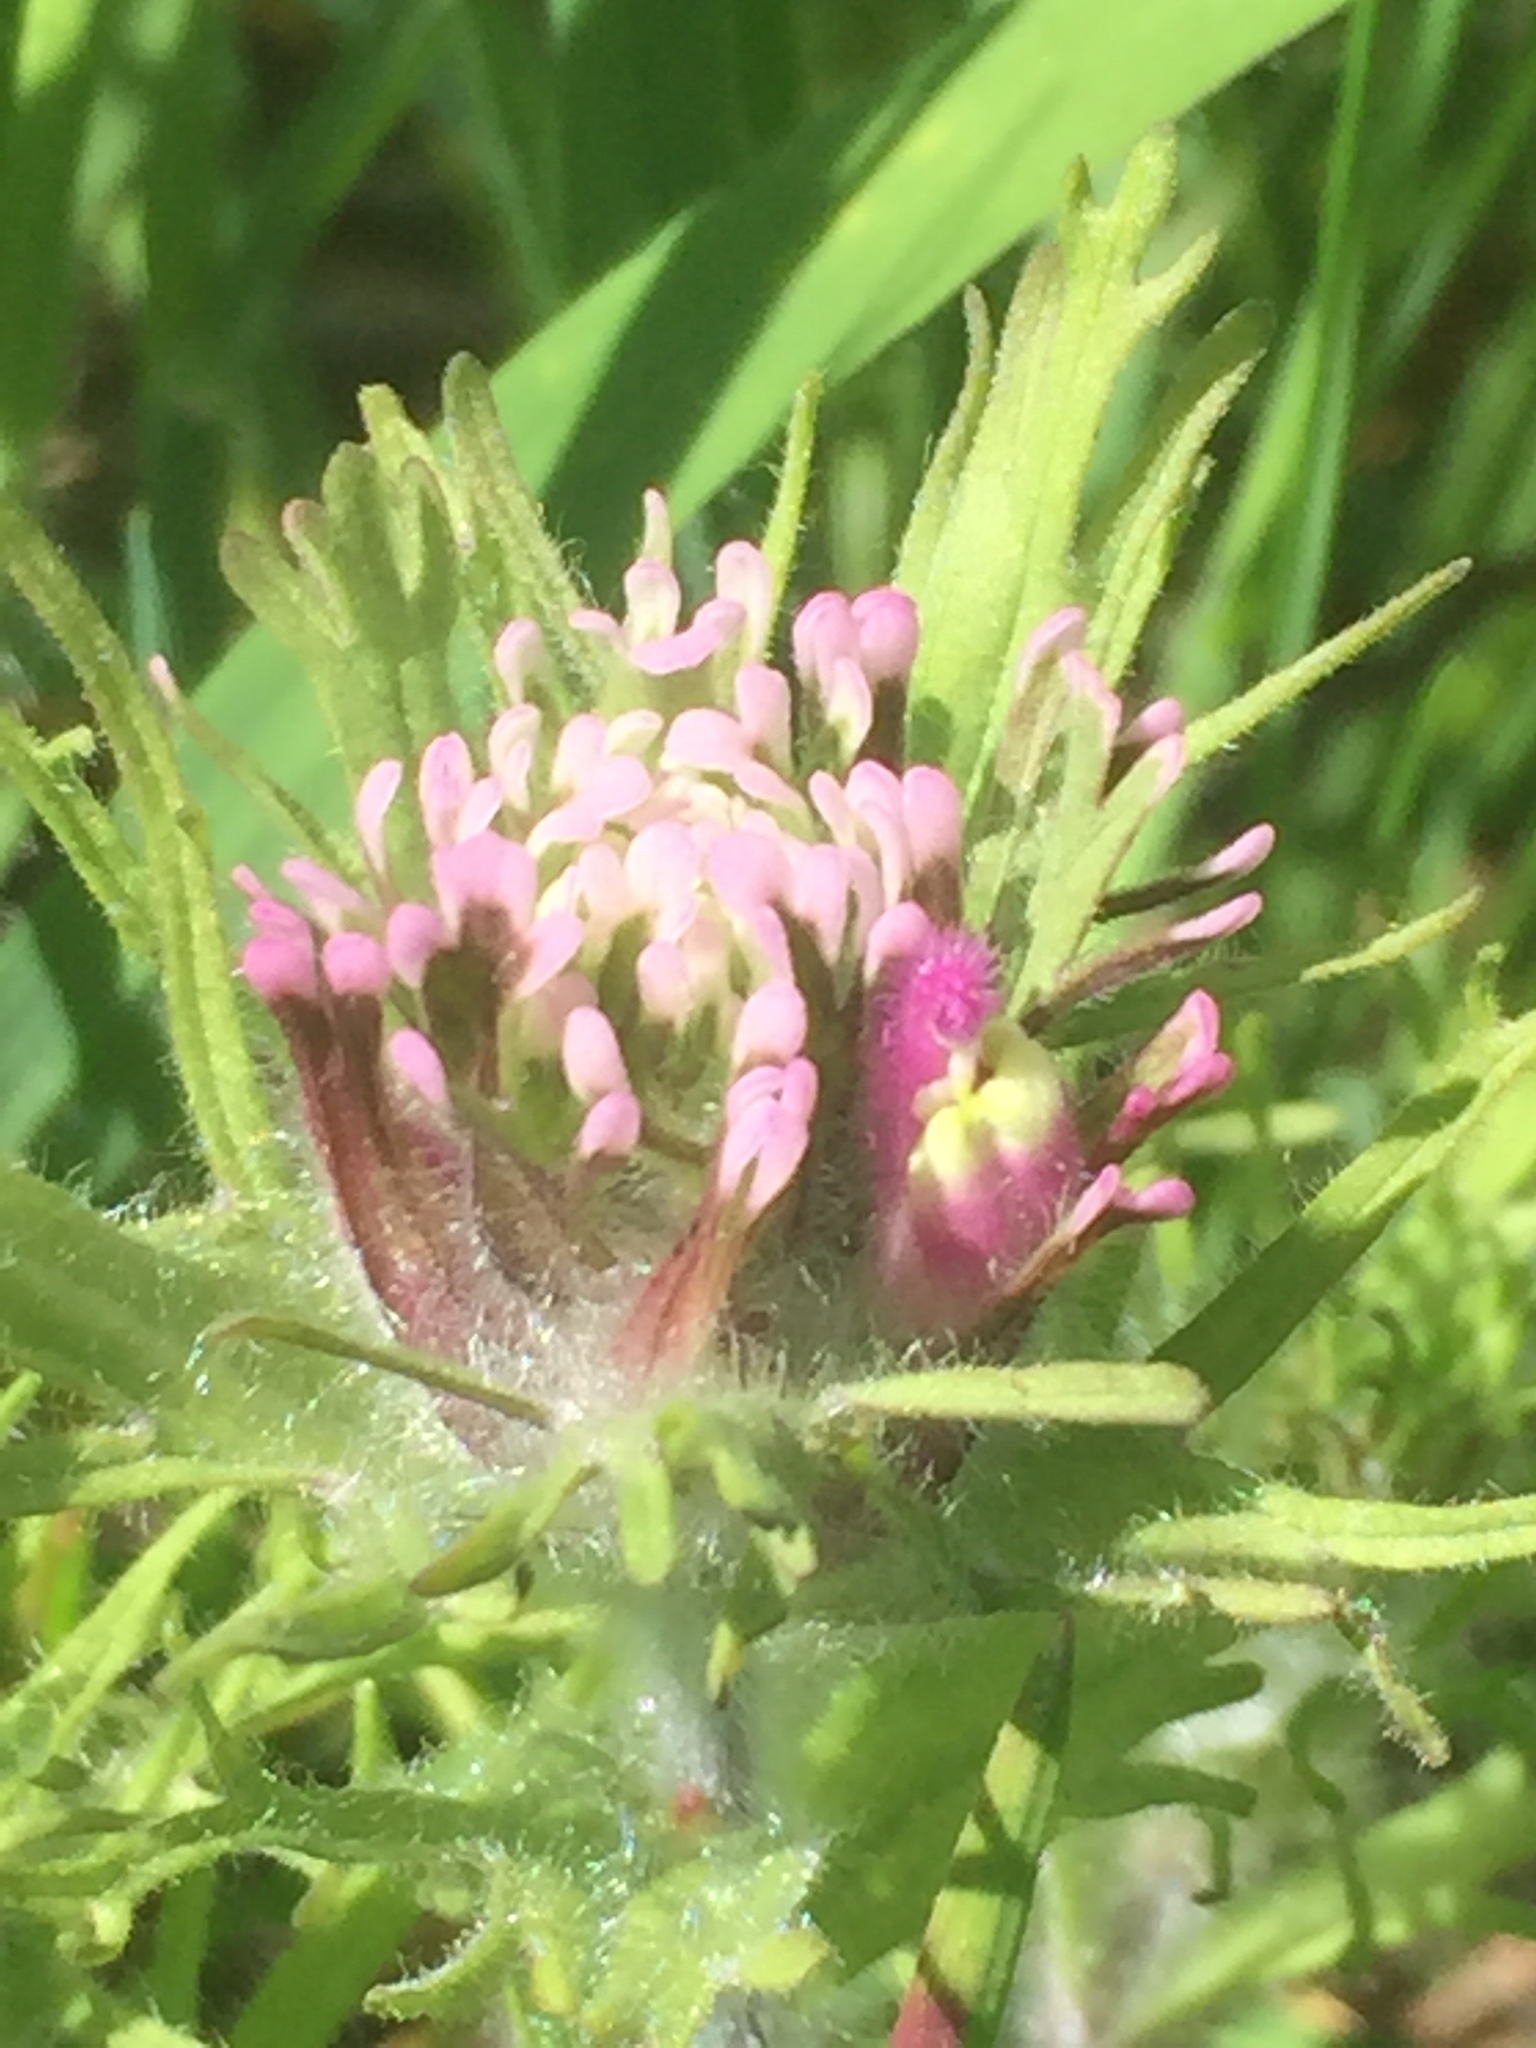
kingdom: Plantae
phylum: Tracheophyta
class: Magnoliopsida
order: Lamiales
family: Orobanchaceae
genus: Castilleja
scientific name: Castilleja exserta
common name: Purple owl-clover
